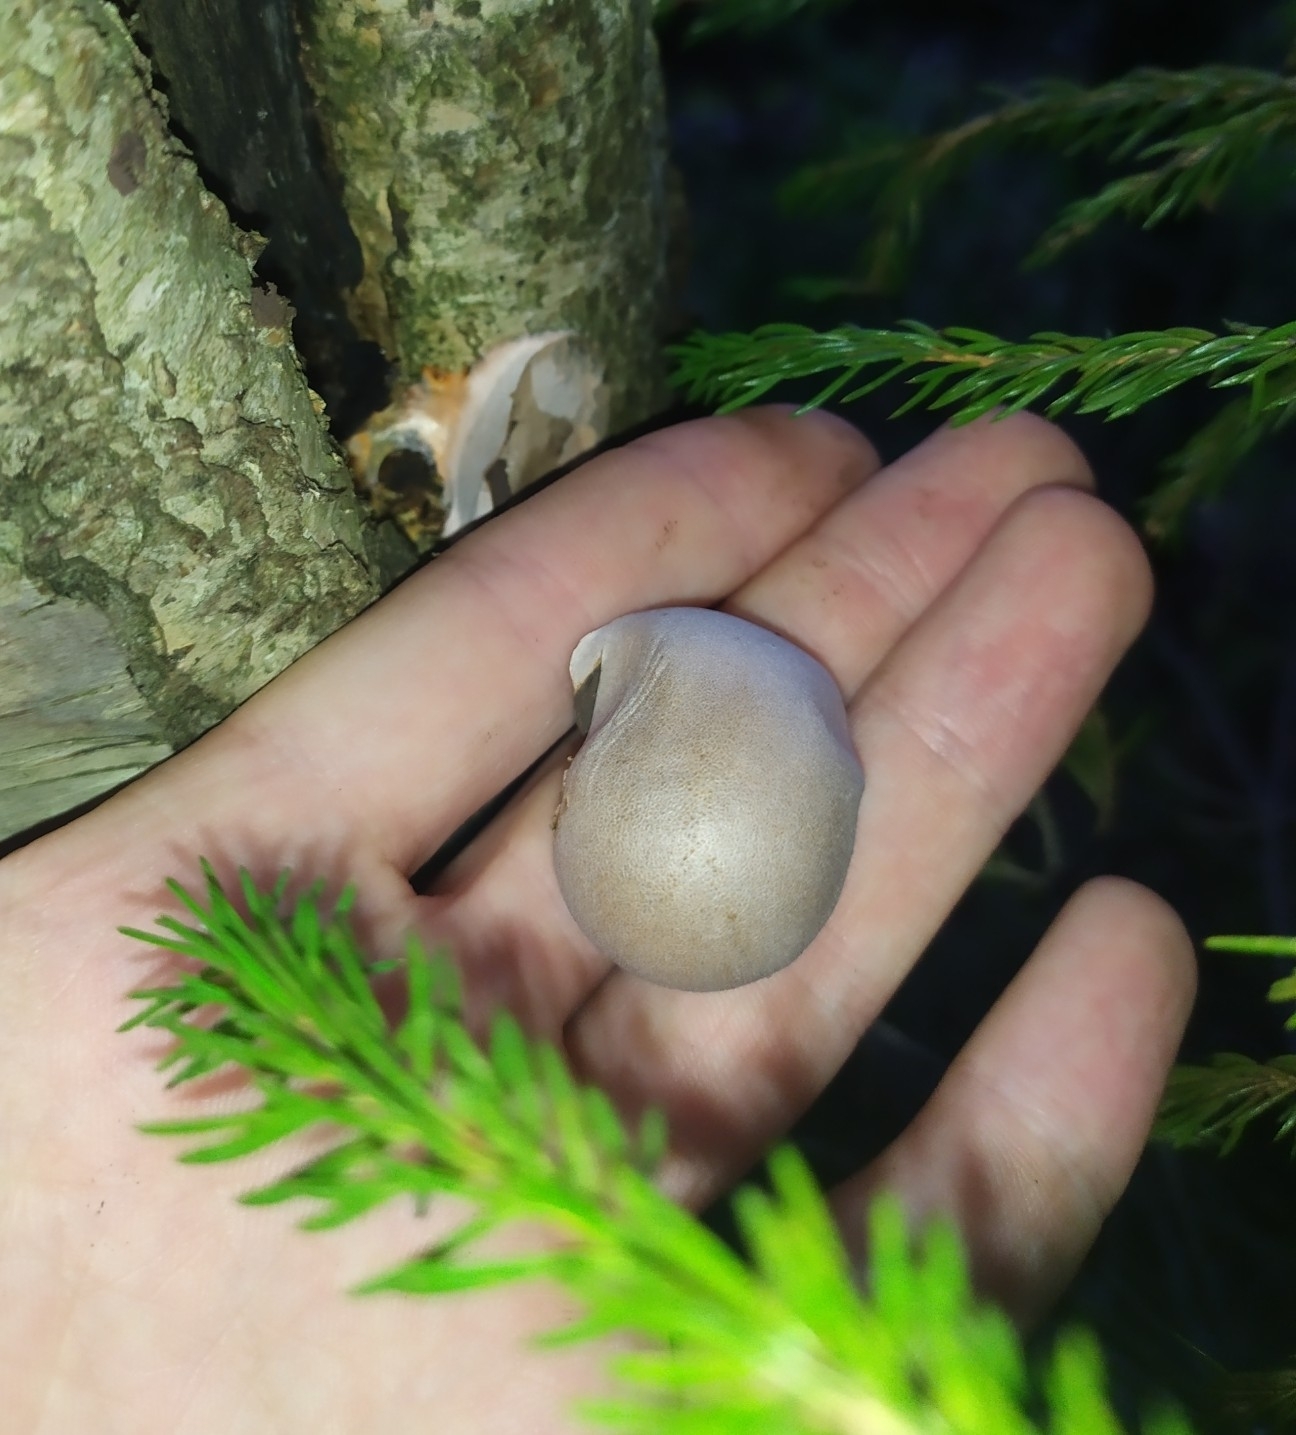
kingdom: Protozoa
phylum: Mycetozoa
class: Myxomycetes
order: Cribrariales
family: Tubiferaceae
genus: Lycogala
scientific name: Lycogala flavofuscum
